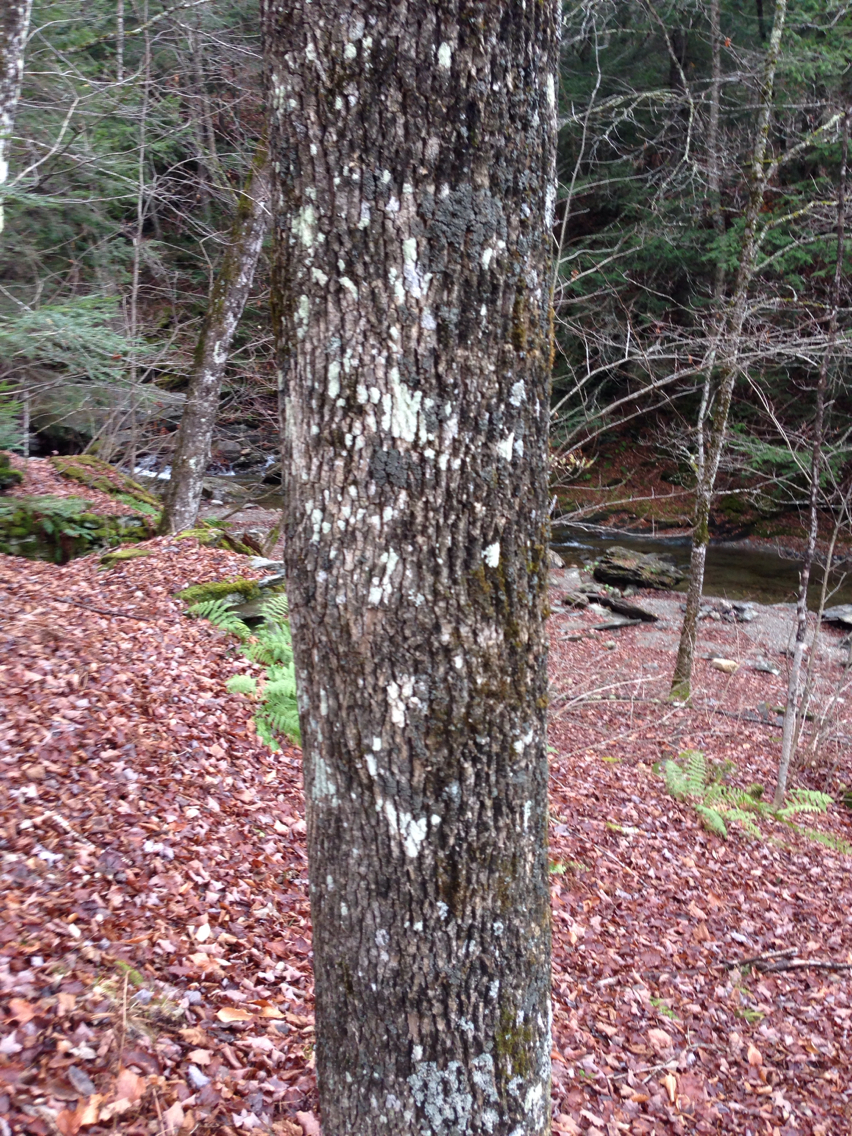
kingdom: Plantae
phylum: Tracheophyta
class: Magnoliopsida
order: Lamiales
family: Oleaceae
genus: Fraxinus
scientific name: Fraxinus americana
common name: White ash
